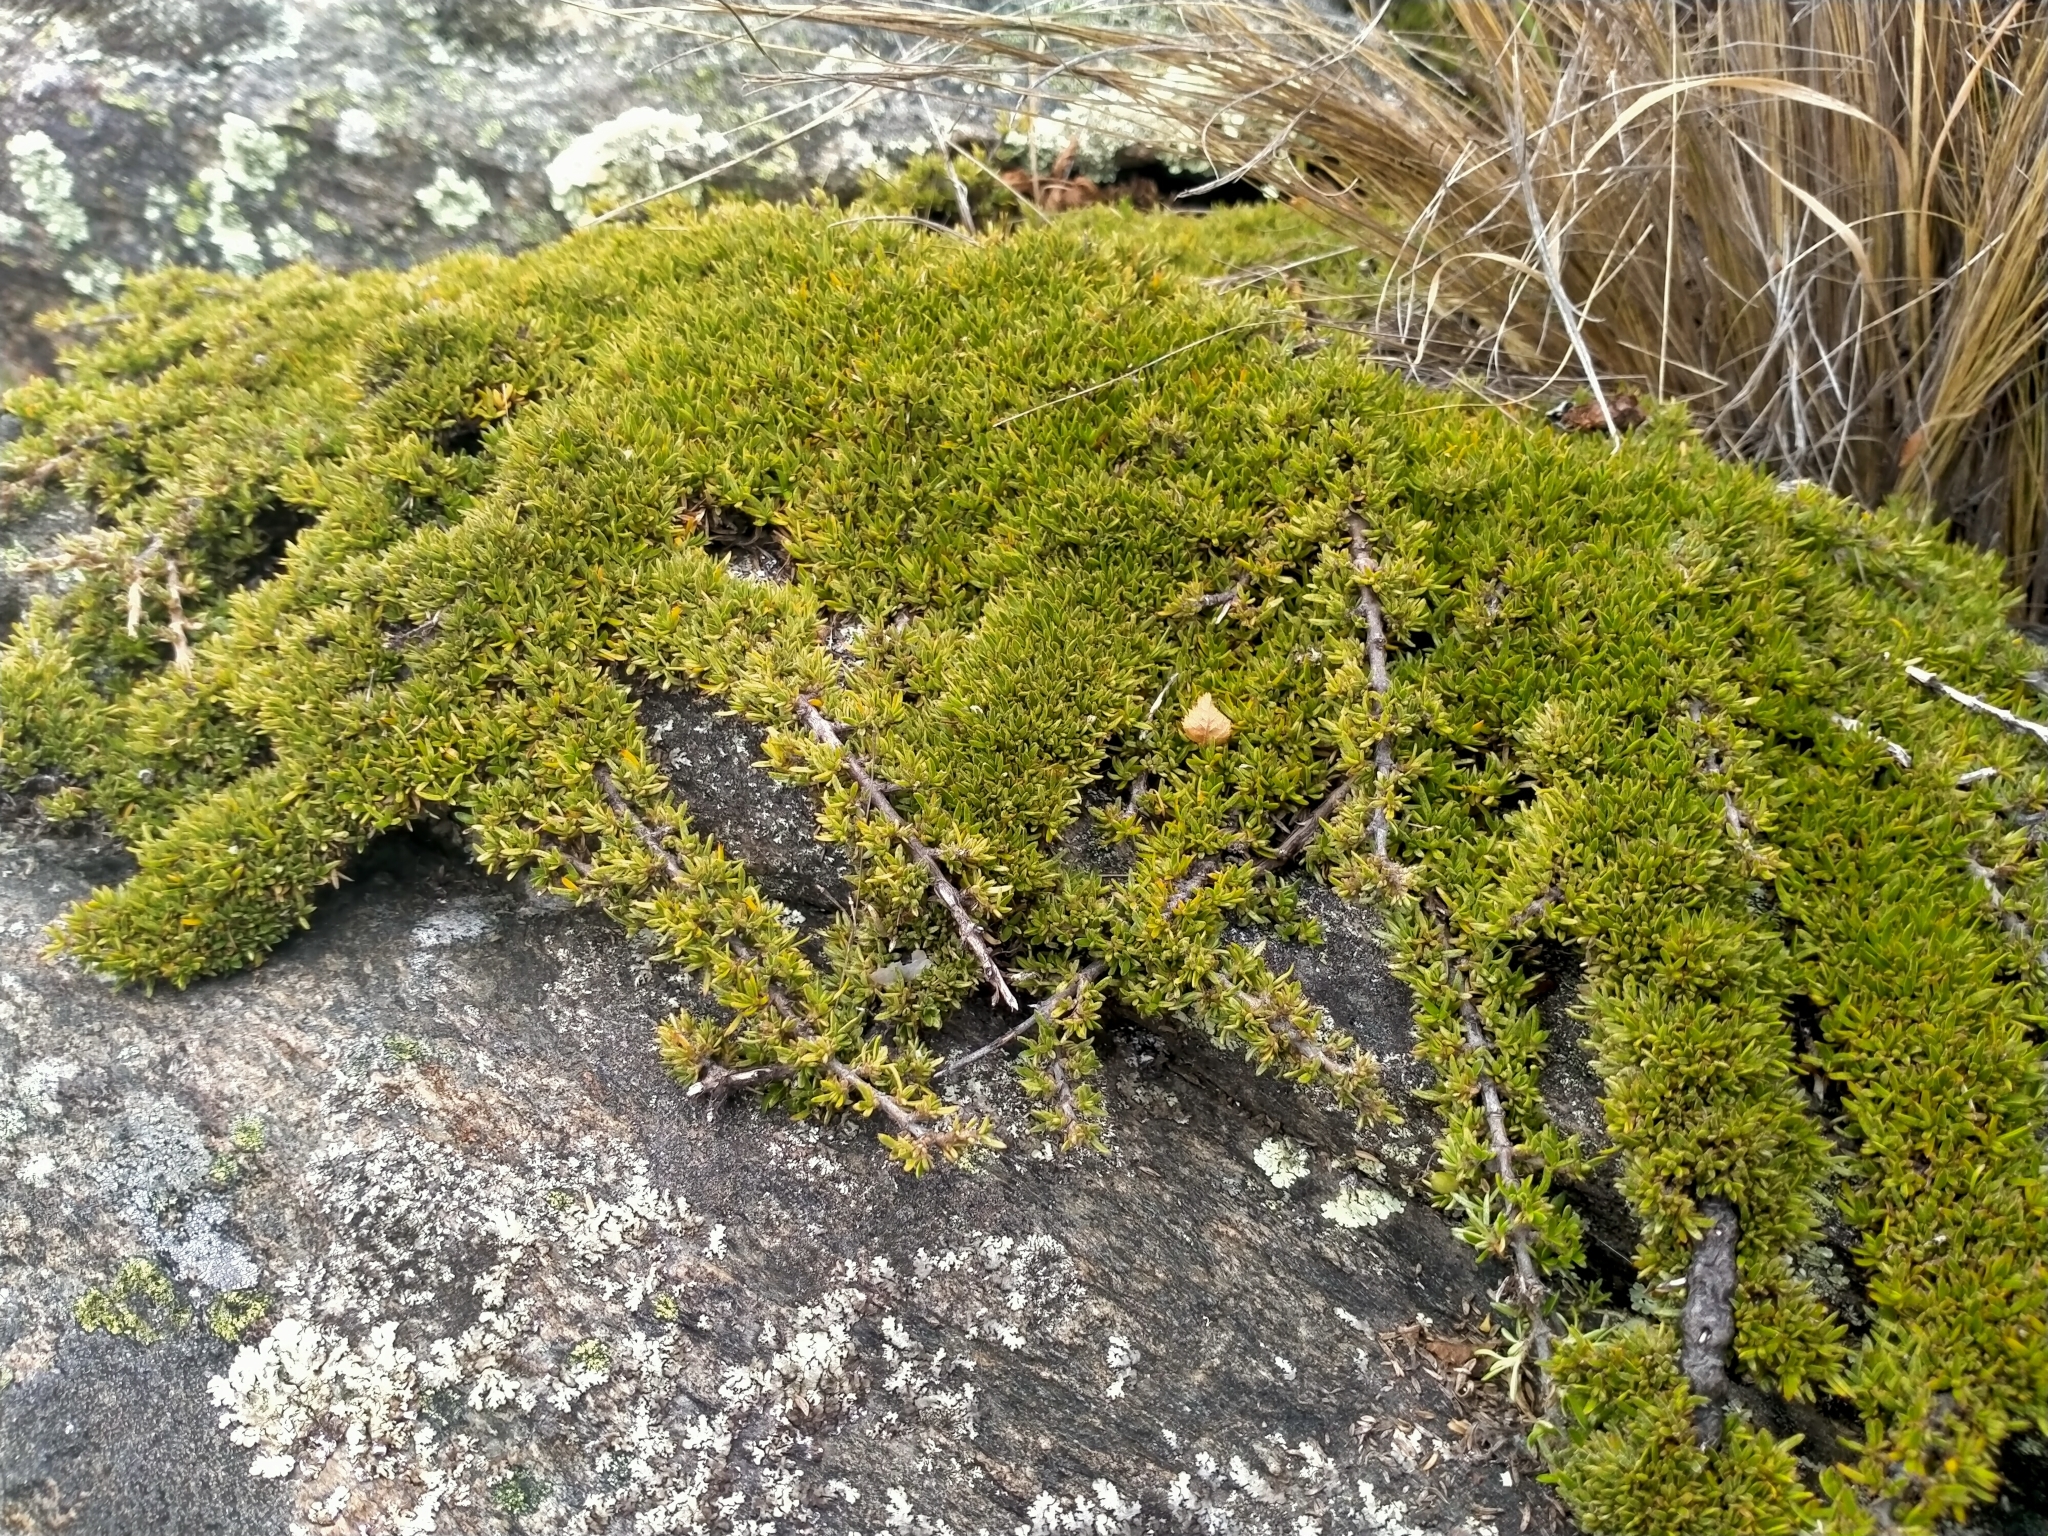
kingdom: Plantae
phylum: Tracheophyta
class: Magnoliopsida
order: Gentianales
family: Rubiaceae
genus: Coprosma
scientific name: Coprosma petriei
